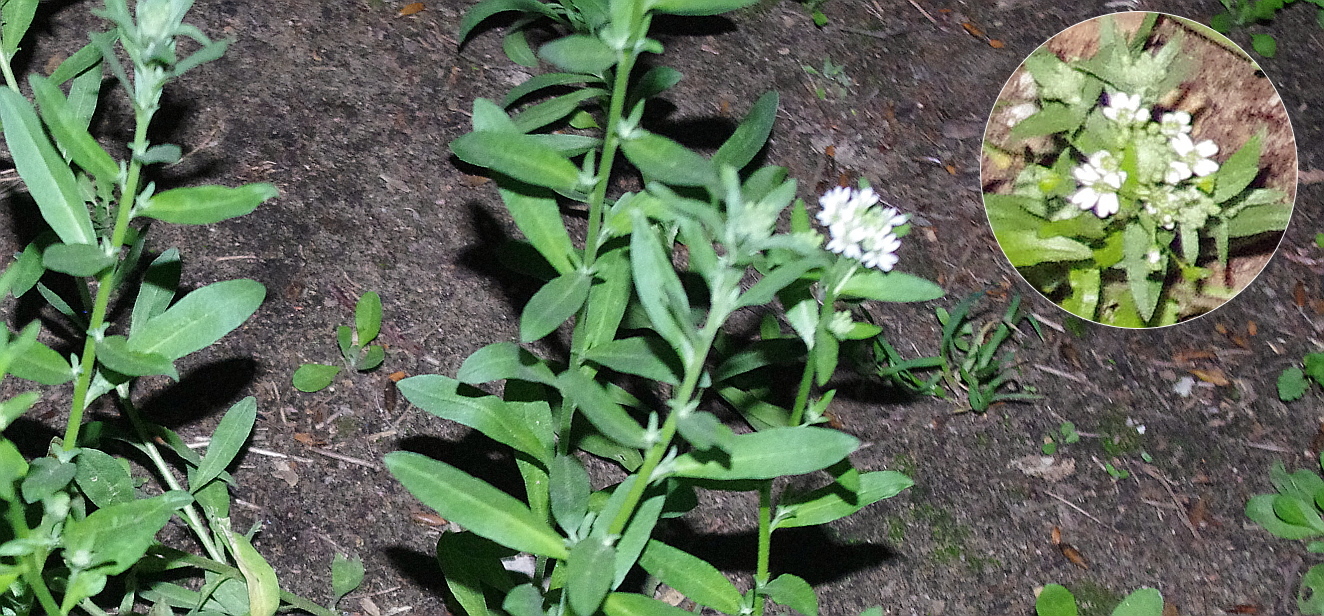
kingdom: Plantae
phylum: Tracheophyta
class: Magnoliopsida
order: Brassicales
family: Brassicaceae
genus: Berteroa
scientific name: Berteroa incana
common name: Hoary alison
